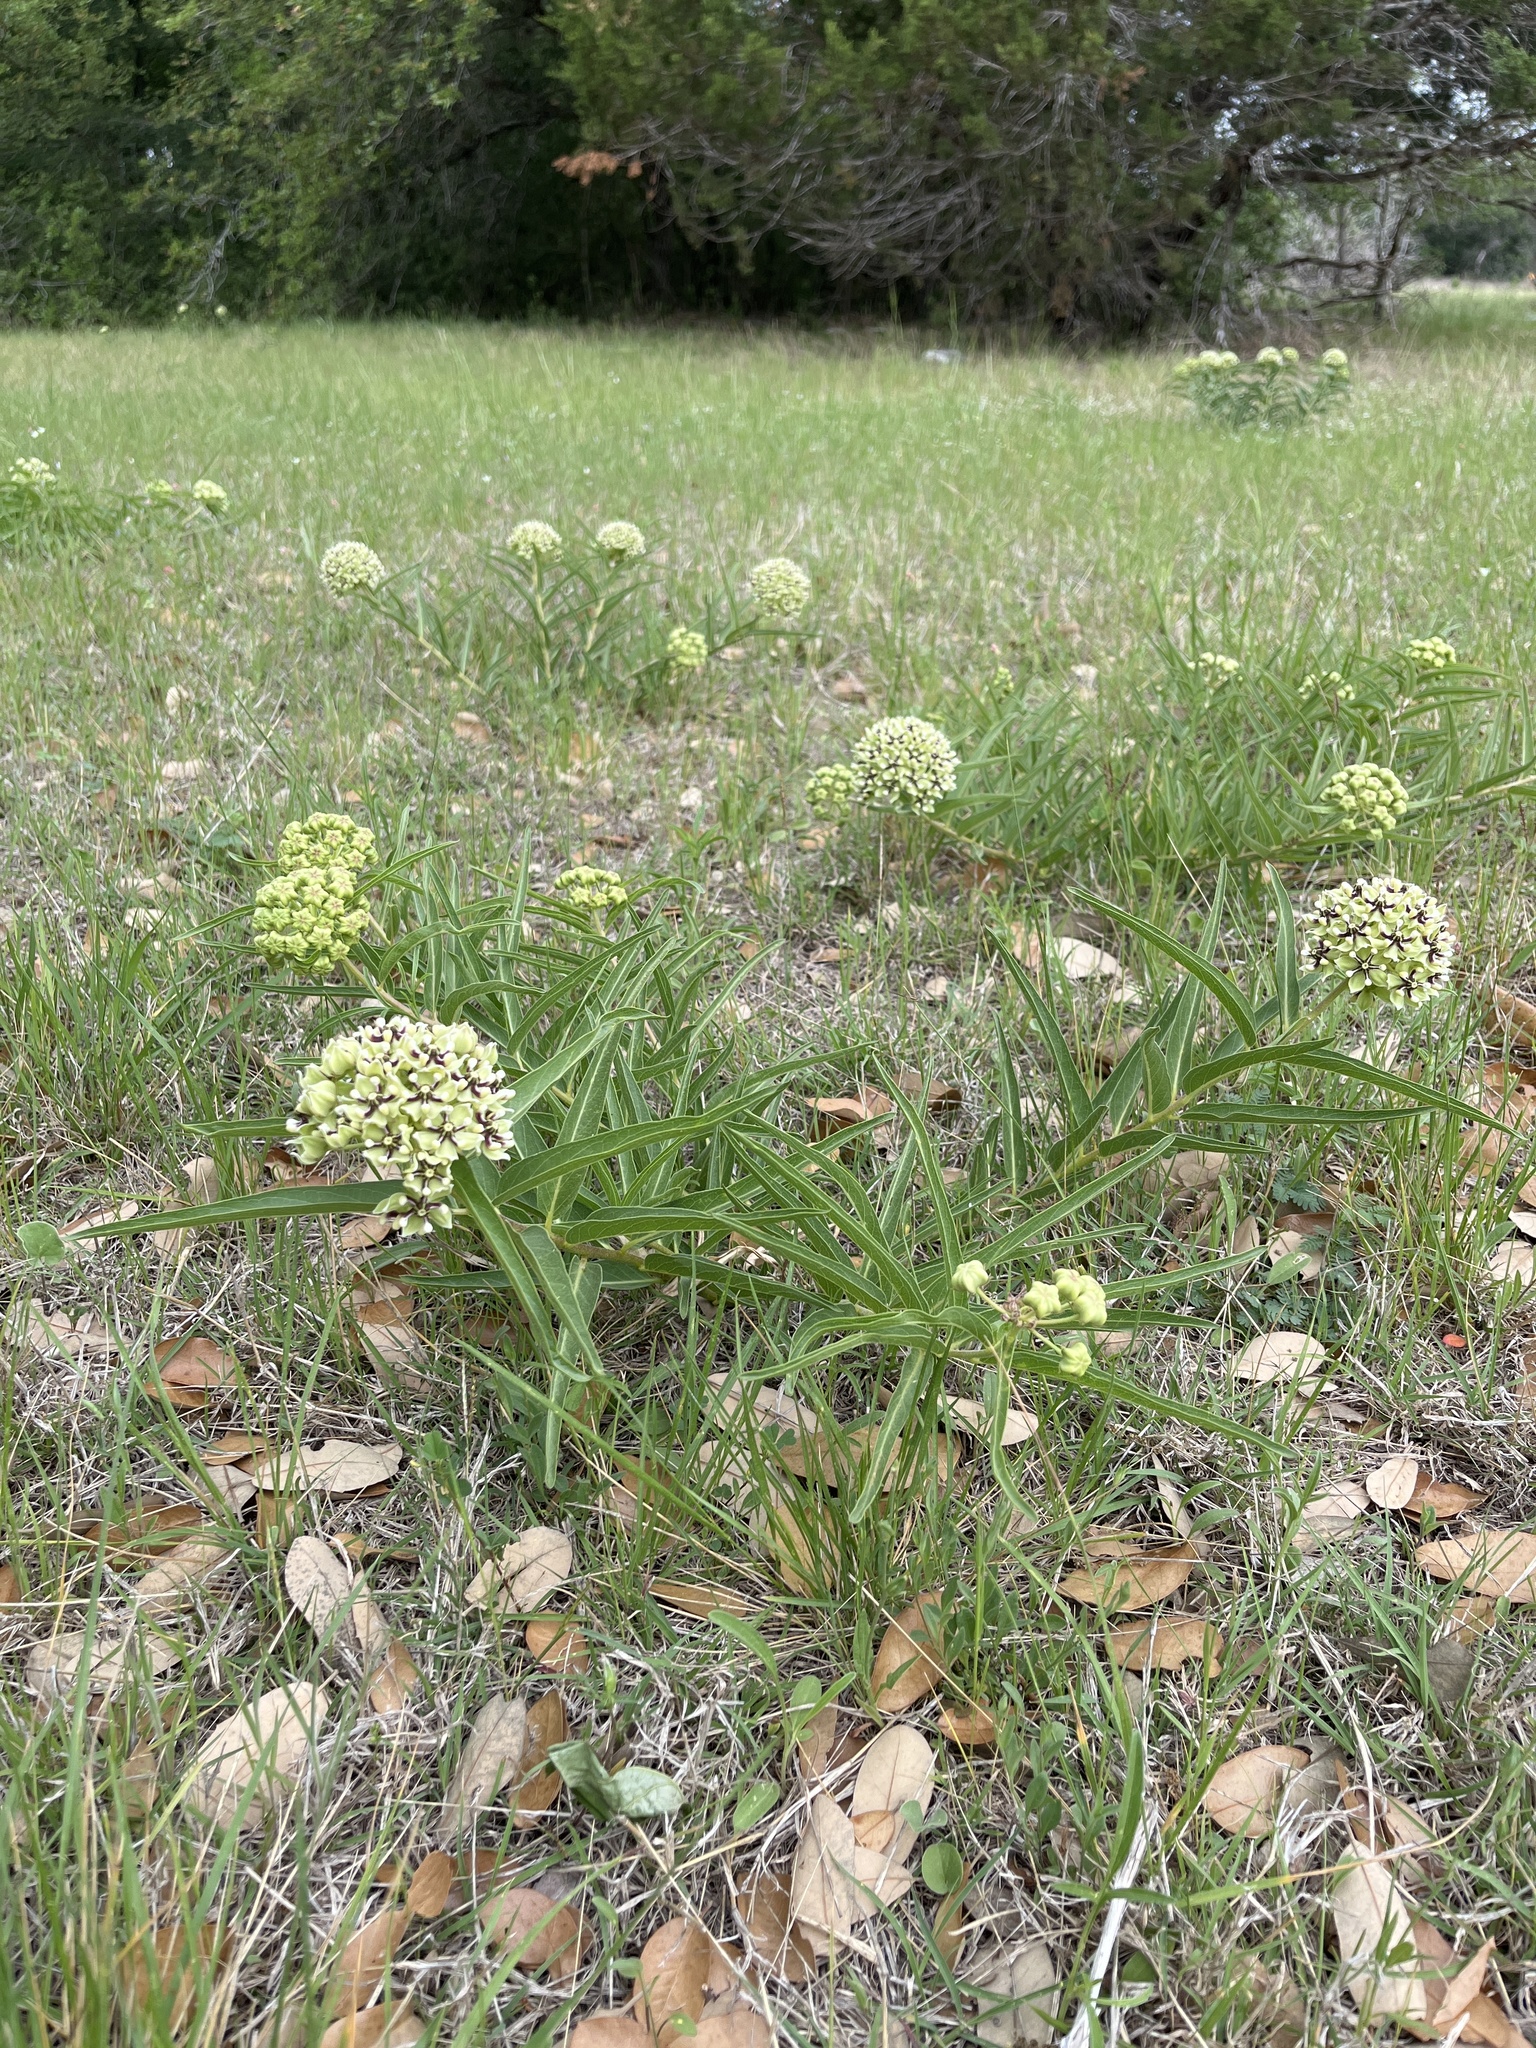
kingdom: Plantae
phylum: Tracheophyta
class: Magnoliopsida
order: Gentianales
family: Apocynaceae
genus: Asclepias
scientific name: Asclepias asperula
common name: Antelope horns
